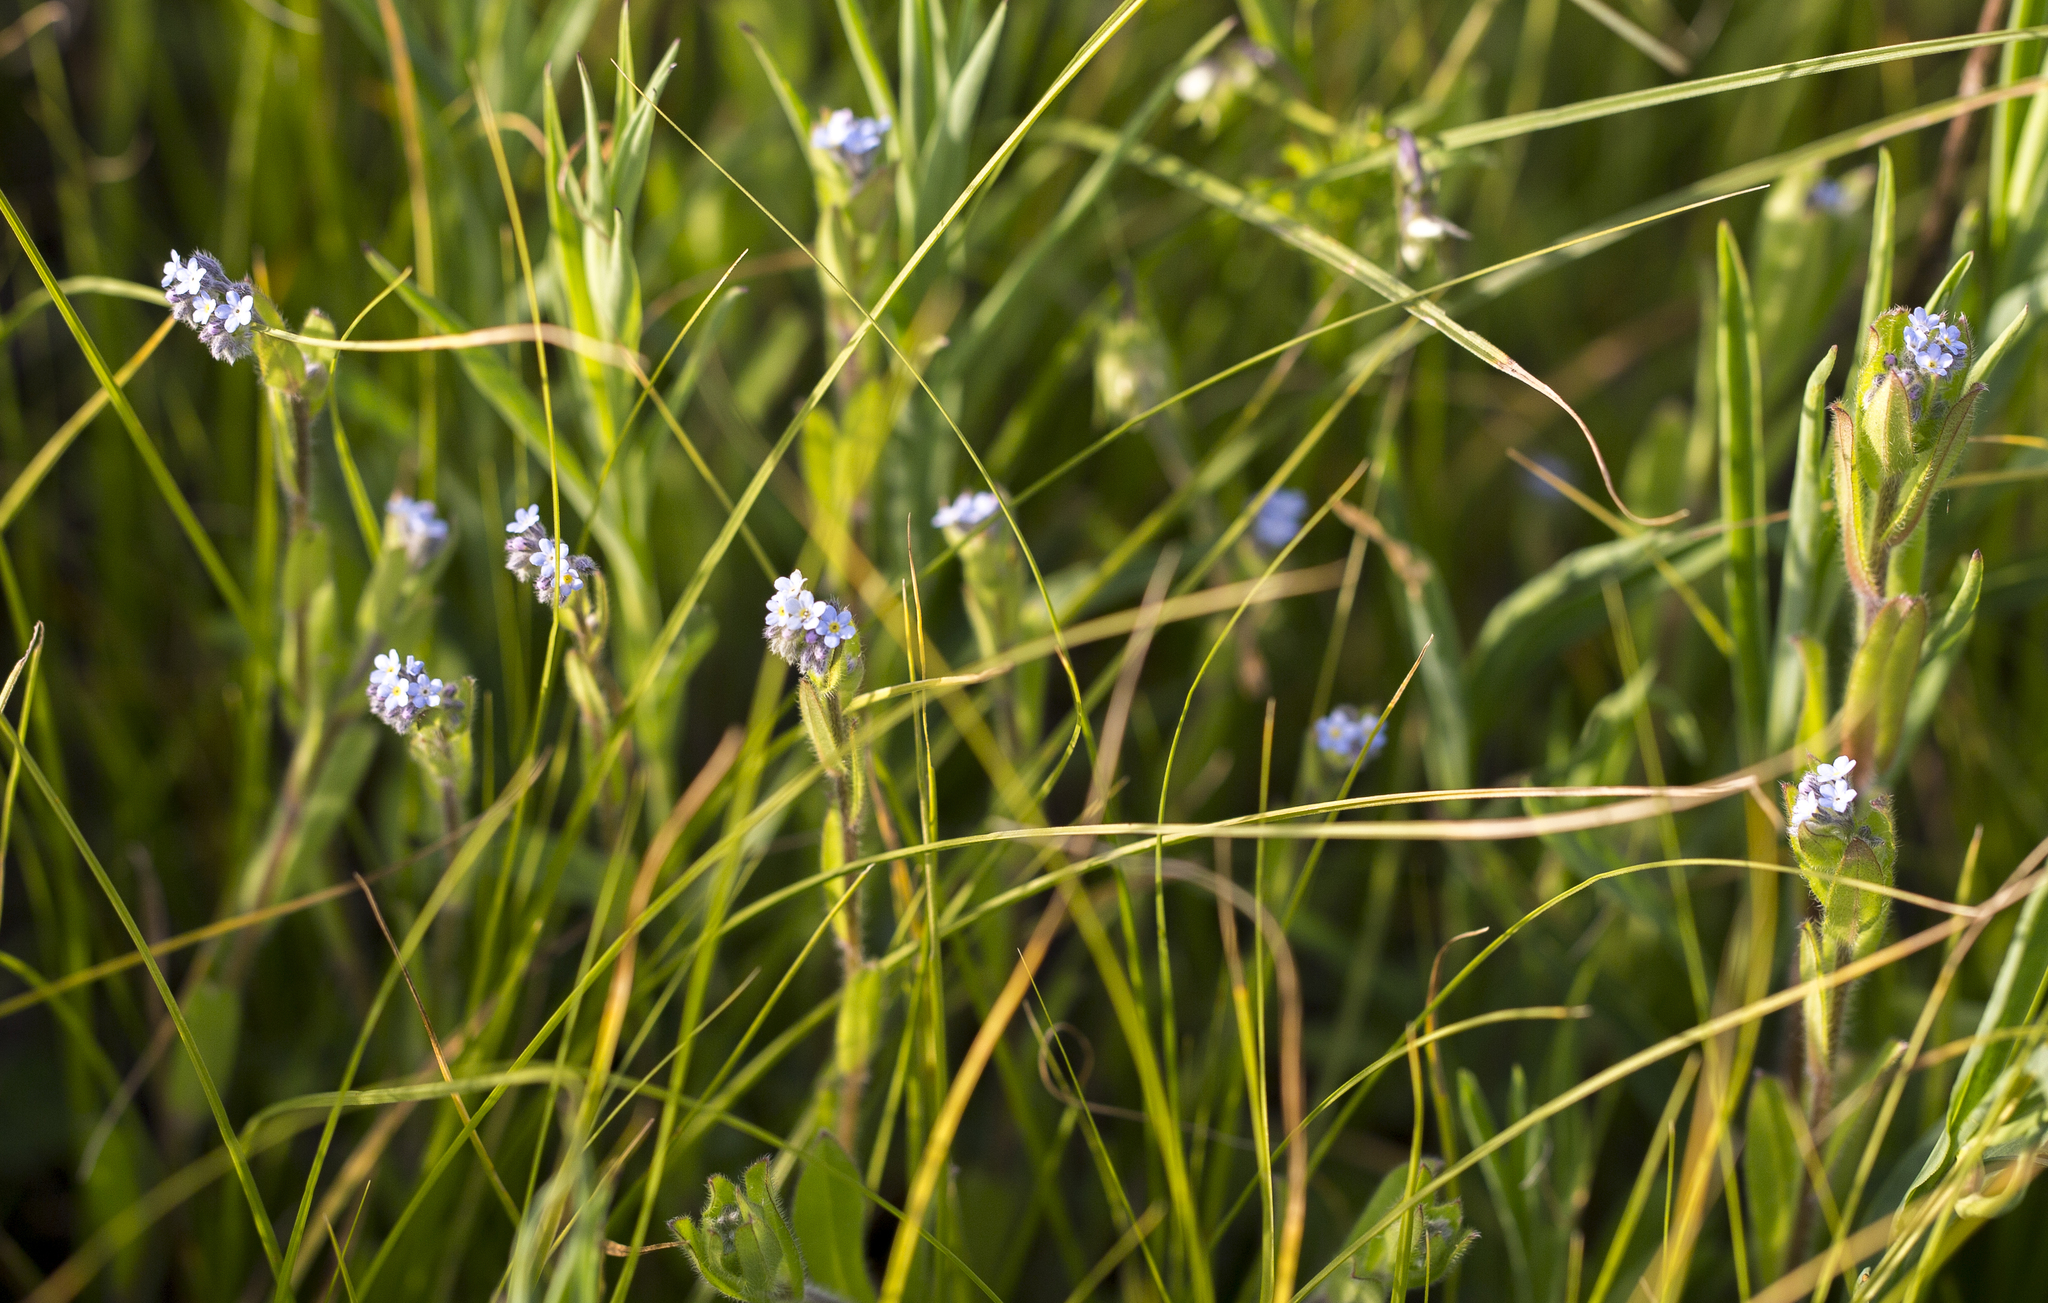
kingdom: Plantae
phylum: Tracheophyta
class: Magnoliopsida
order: Boraginales
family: Boraginaceae
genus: Myosotis
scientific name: Myosotis arvensis
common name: Field forget-me-not
